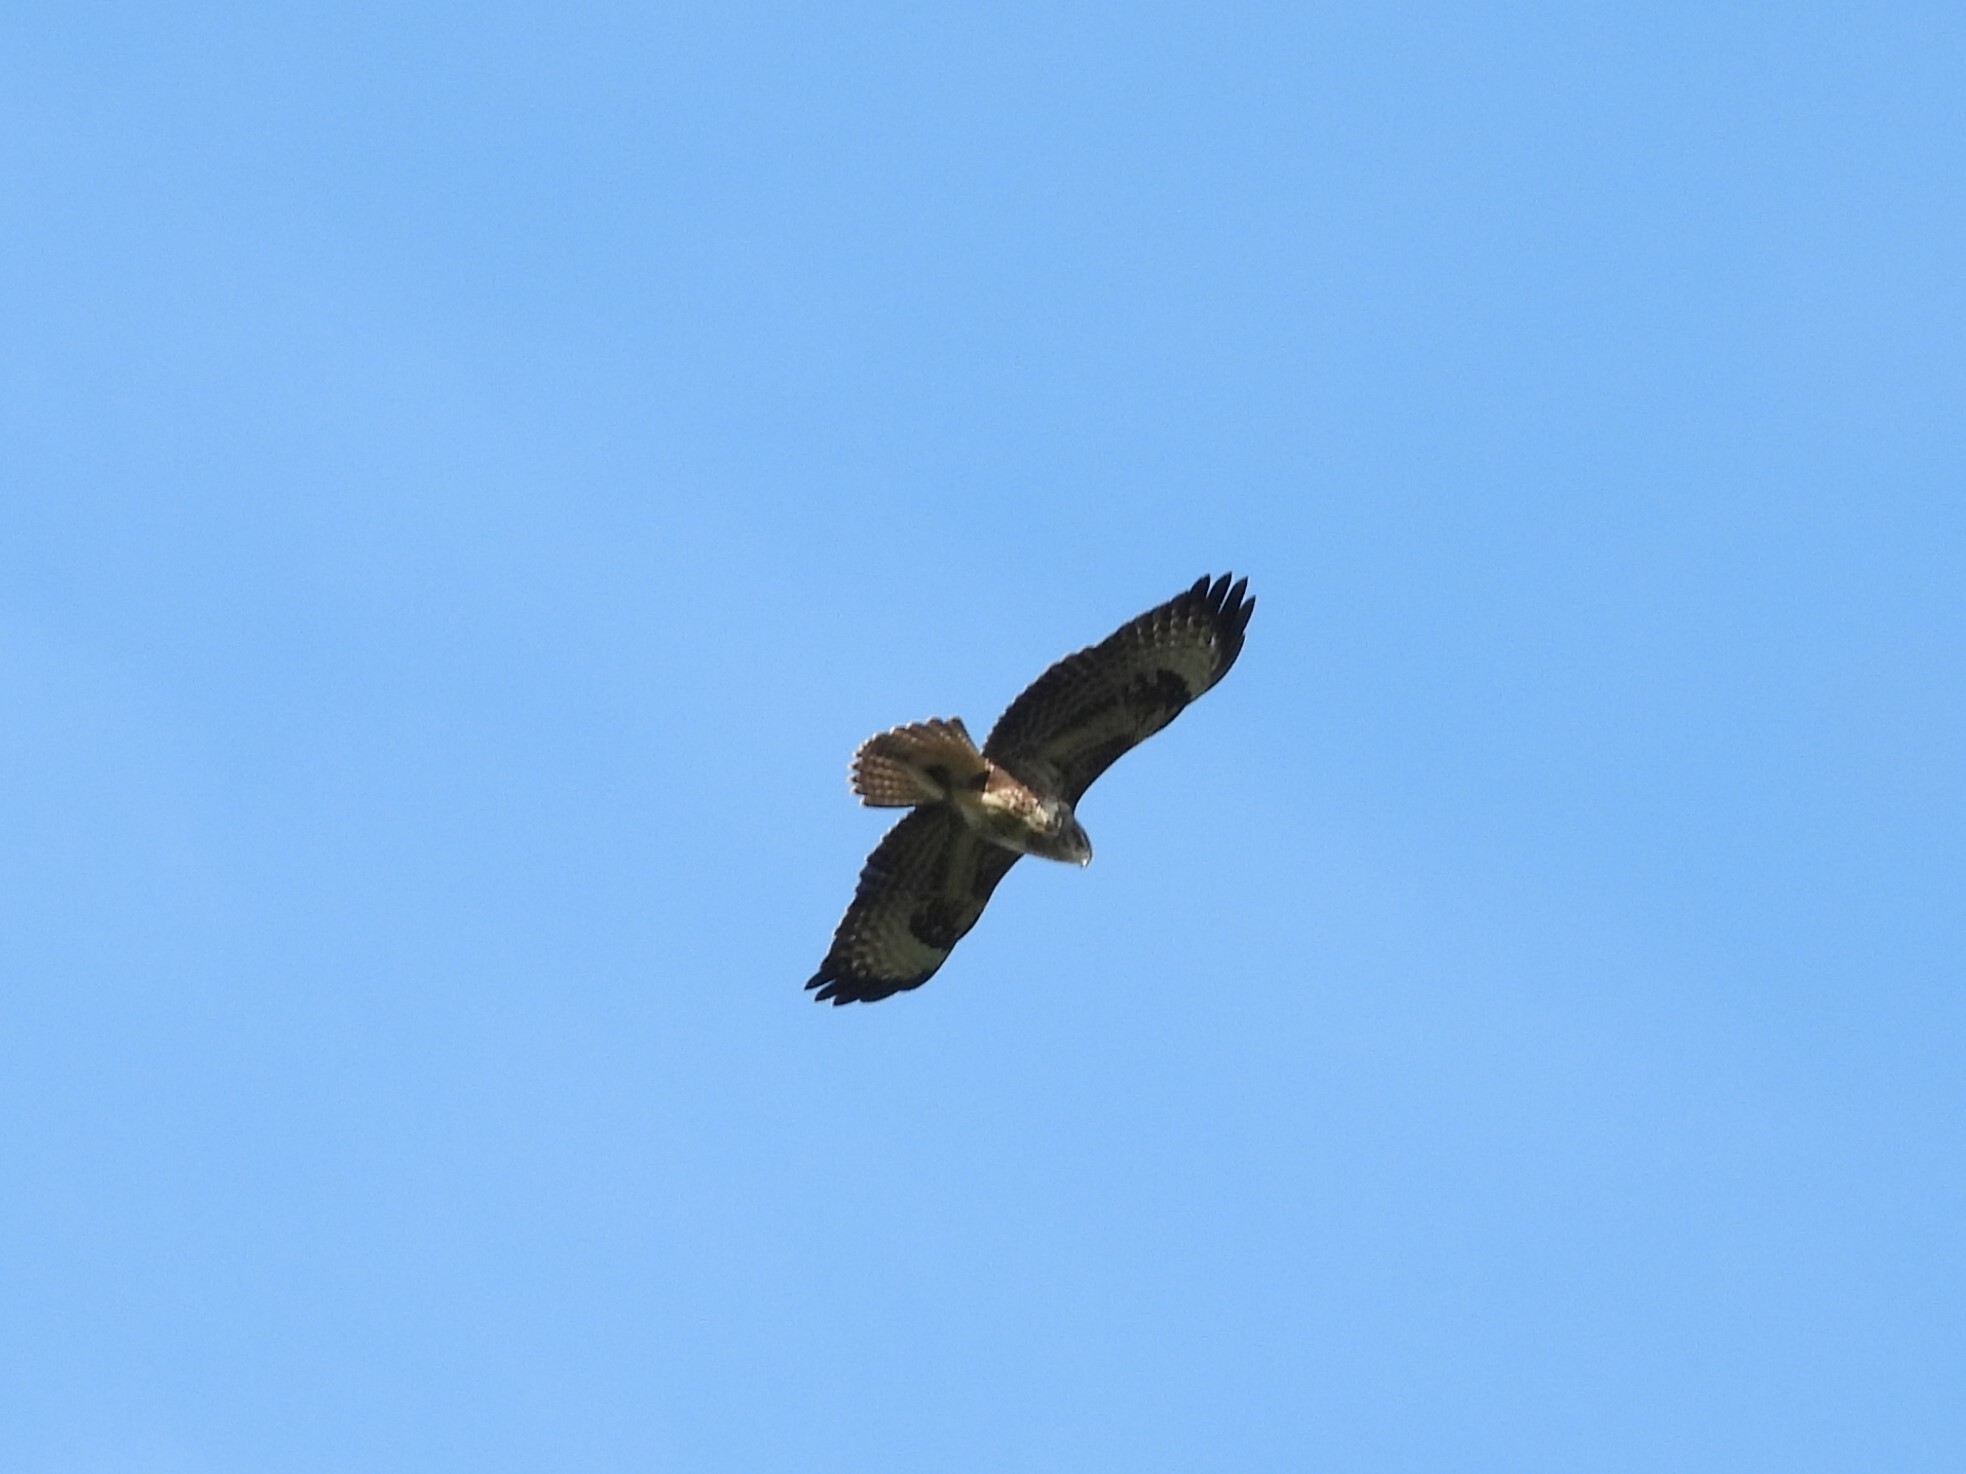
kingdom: Animalia
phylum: Chordata
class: Aves
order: Accipitriformes
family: Accipitridae
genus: Buteo
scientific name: Buteo buteo
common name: Common buzzard
